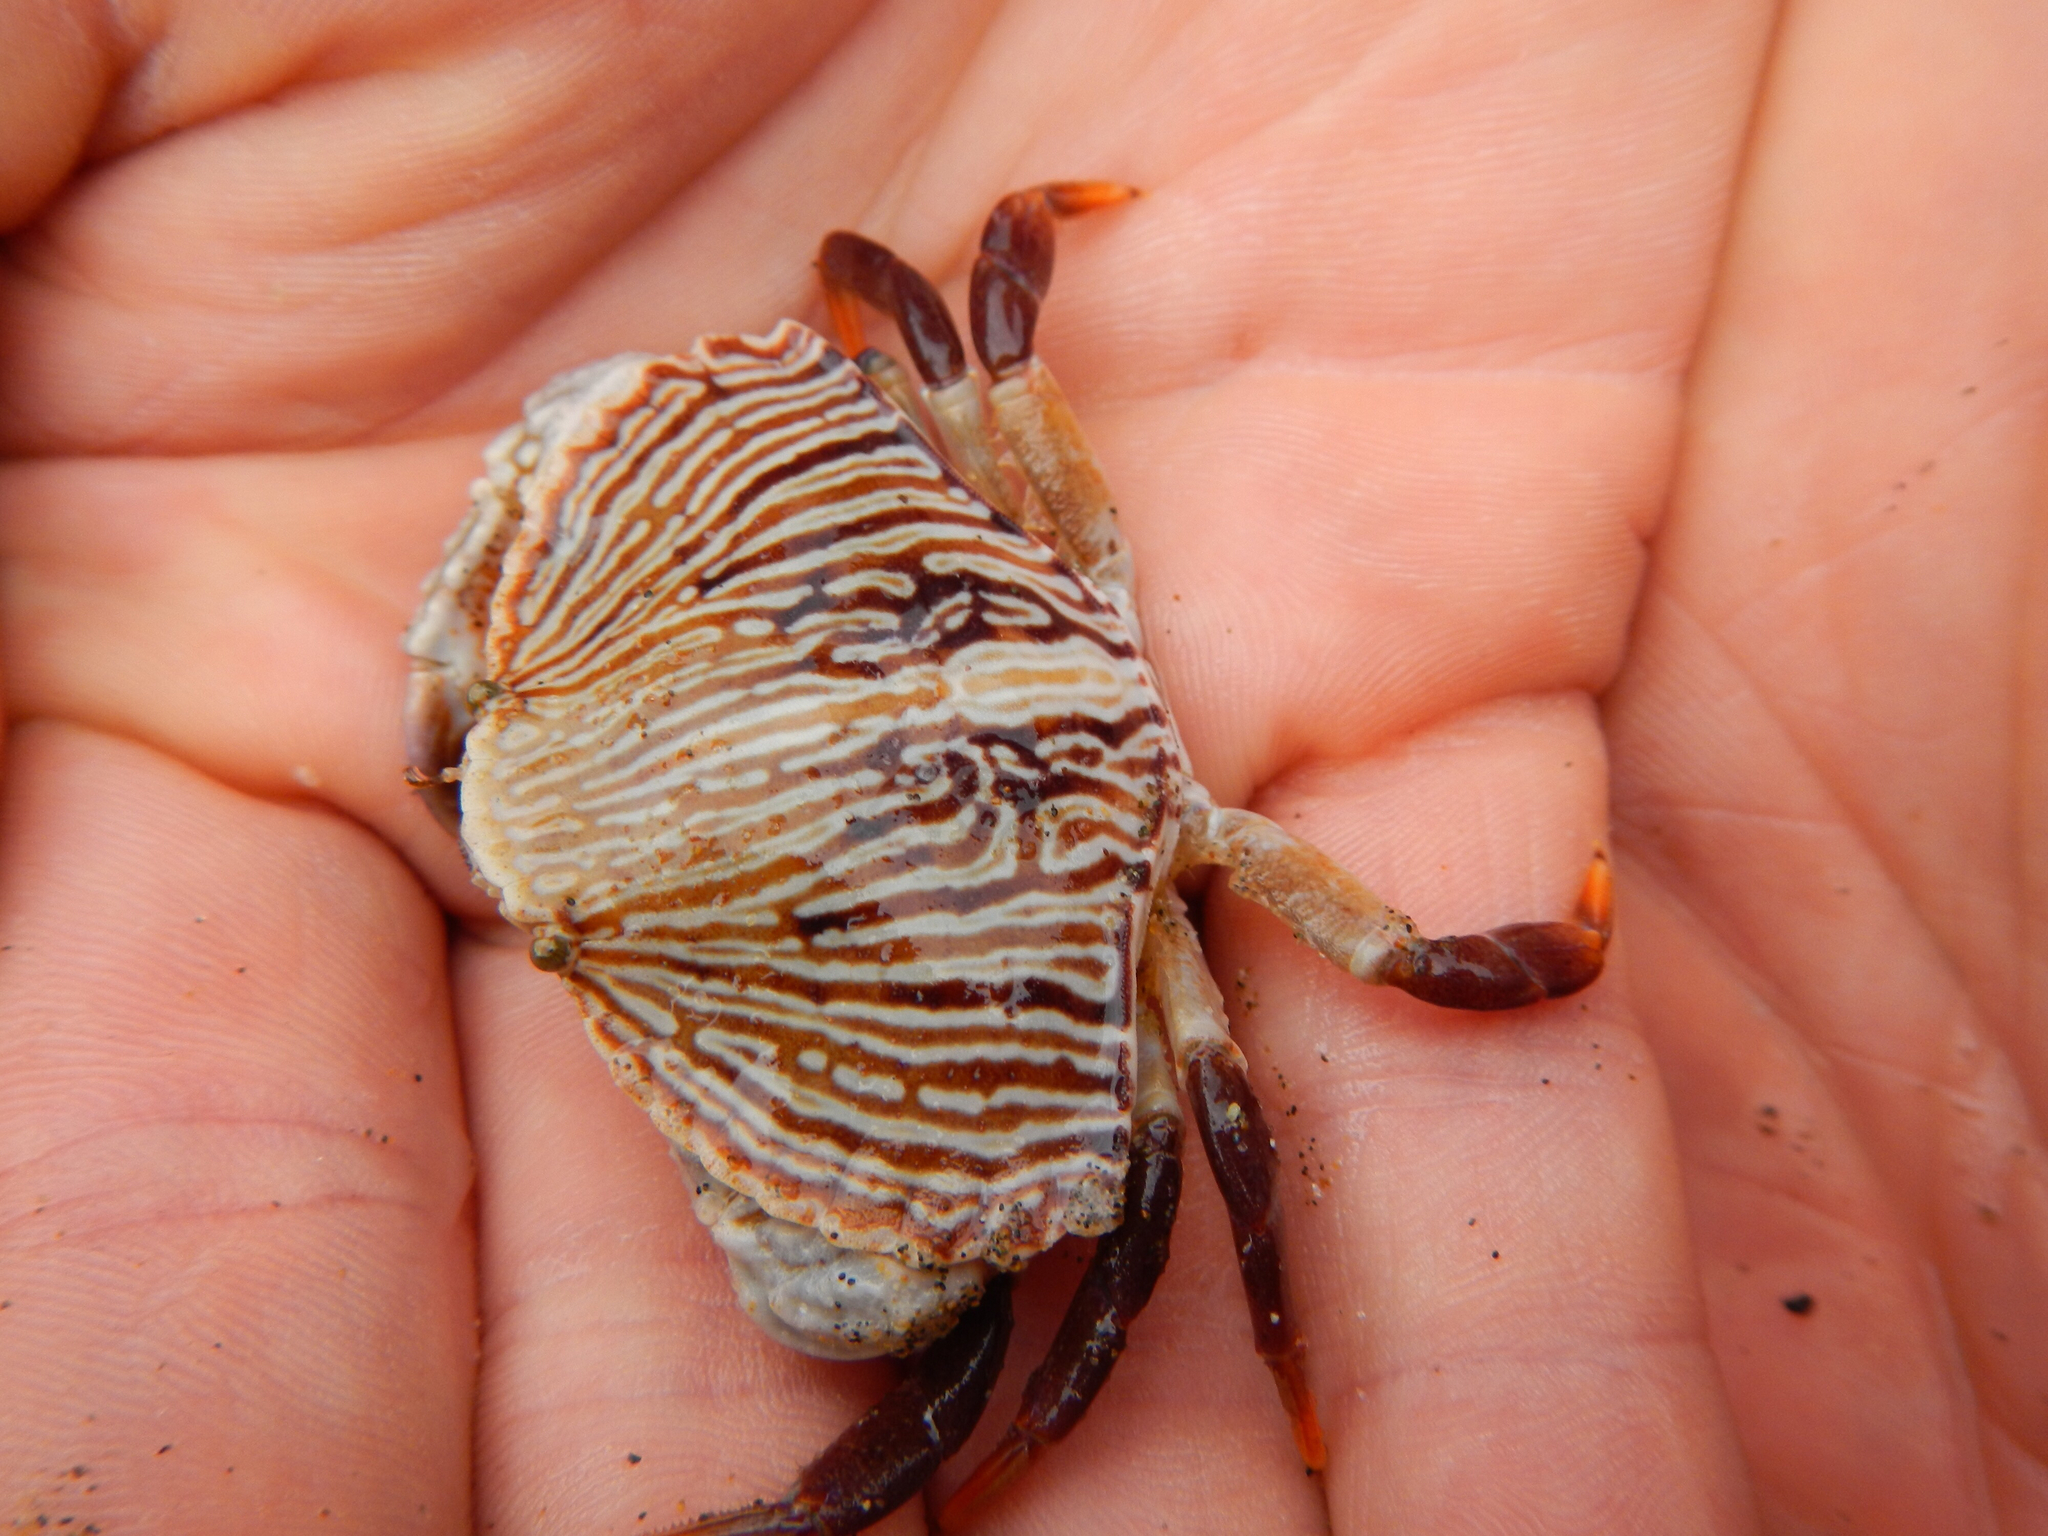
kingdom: Animalia
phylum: Arthropoda
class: Malacostraca
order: Decapoda
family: Cancridae
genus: Cancer
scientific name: Cancer productus
